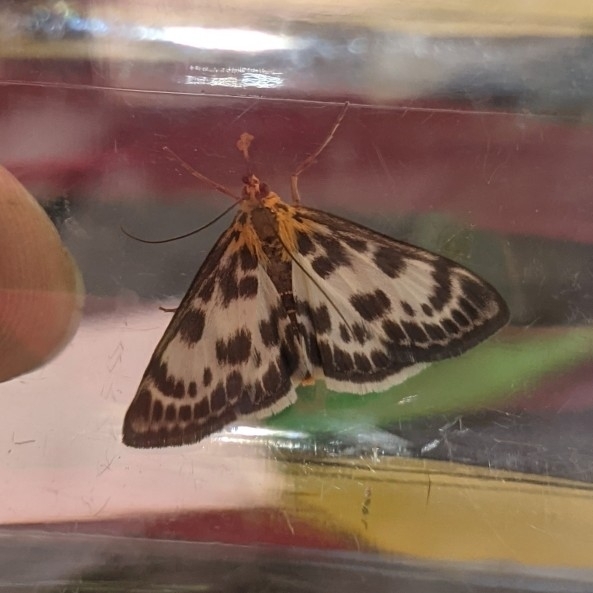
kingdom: Animalia
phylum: Arthropoda
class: Insecta
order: Lepidoptera
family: Crambidae
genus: Anania
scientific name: Anania hortulata
